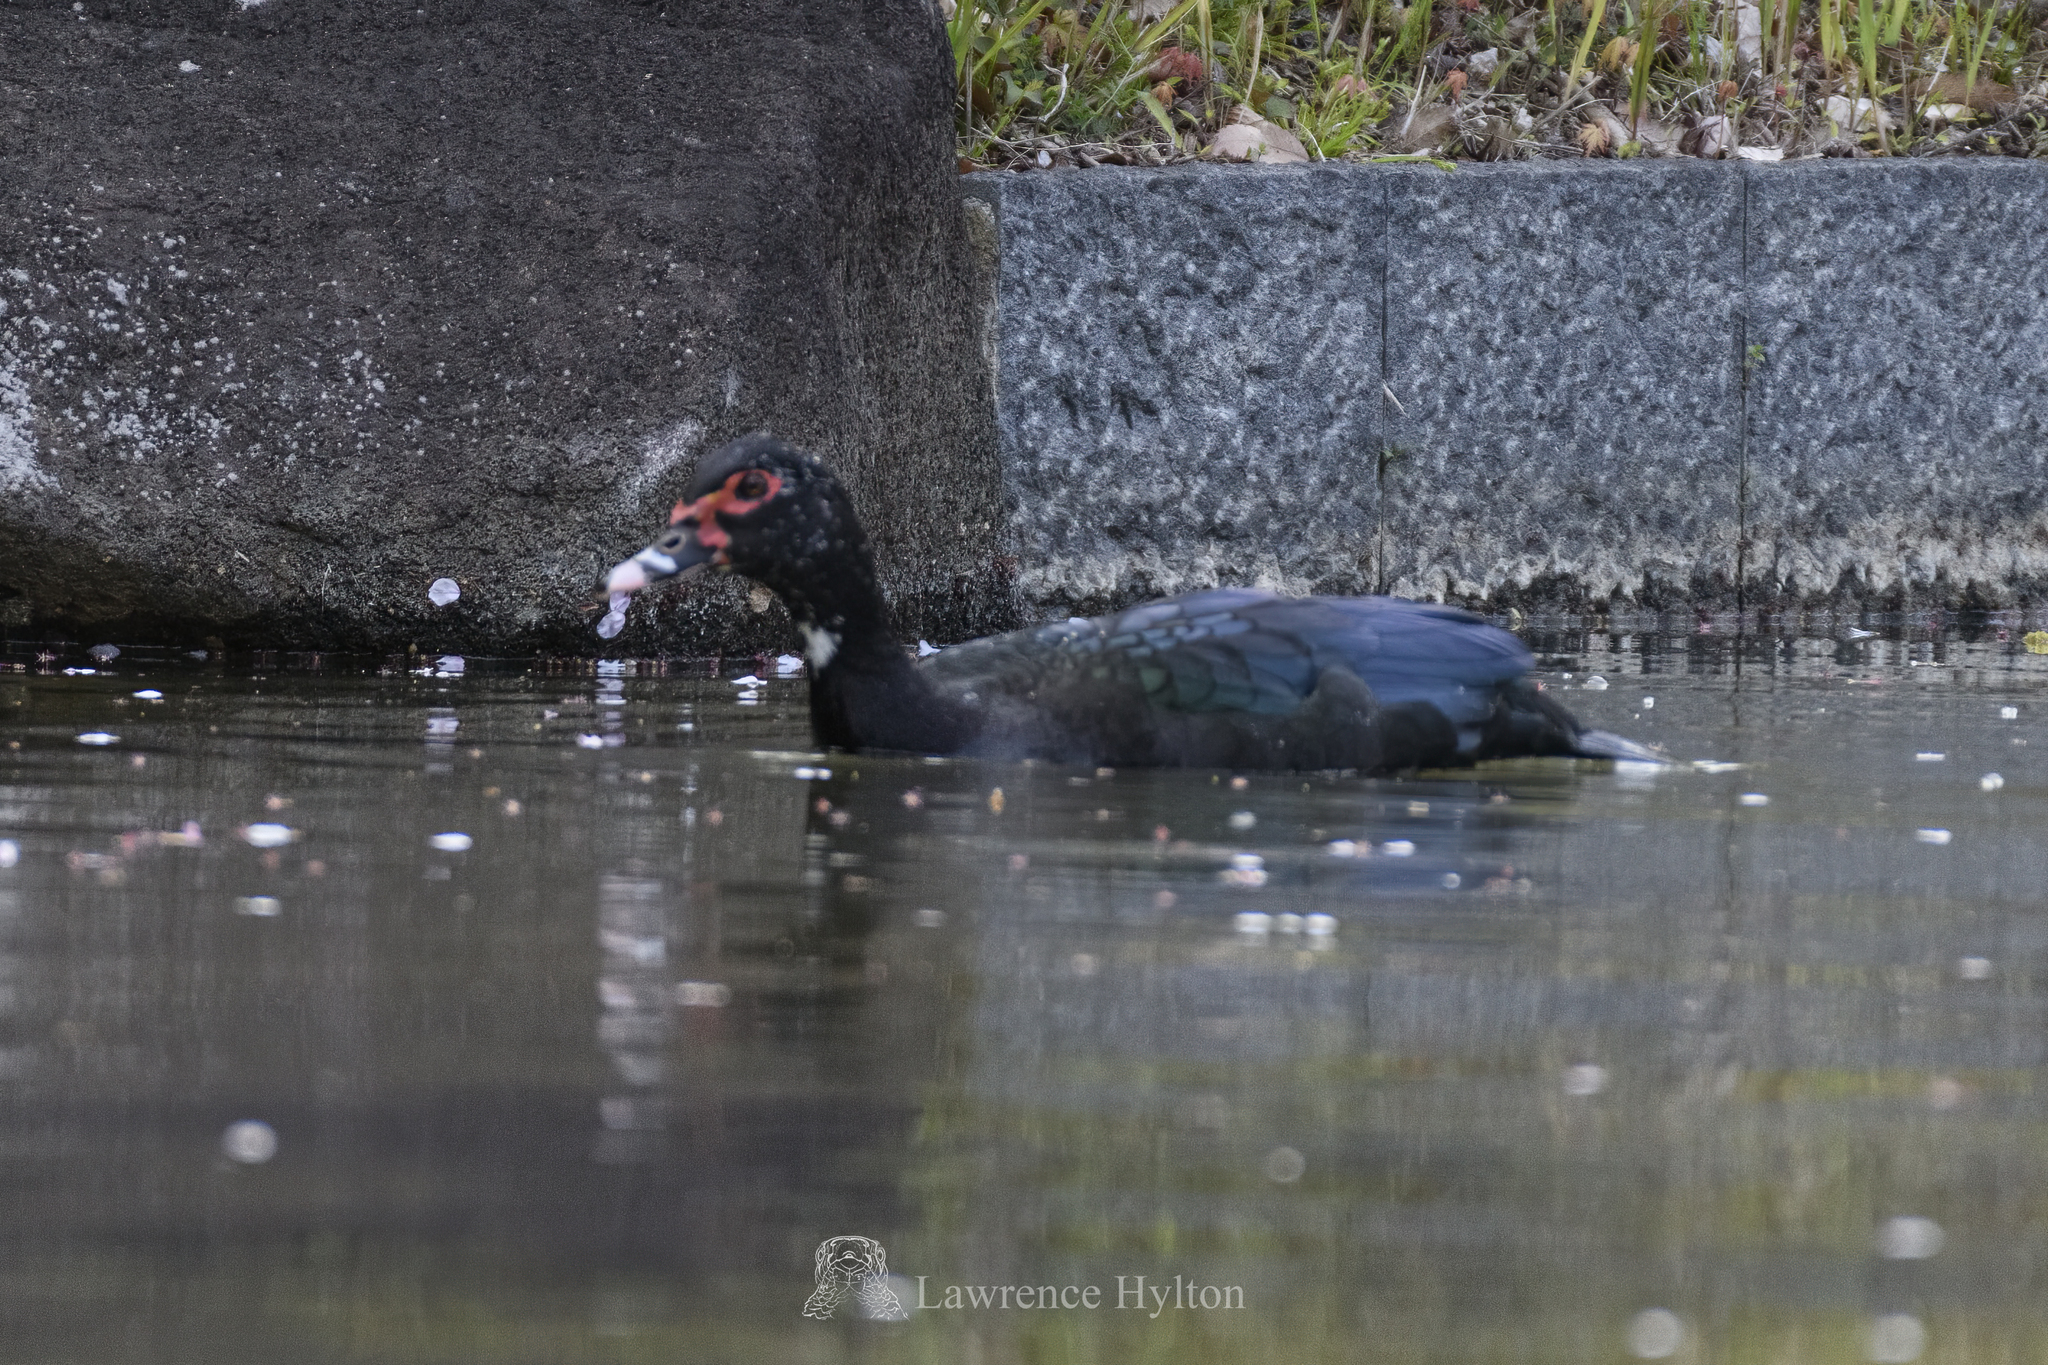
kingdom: Animalia
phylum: Chordata
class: Aves
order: Anseriformes
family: Anatidae
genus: Cairina
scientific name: Cairina moschata
